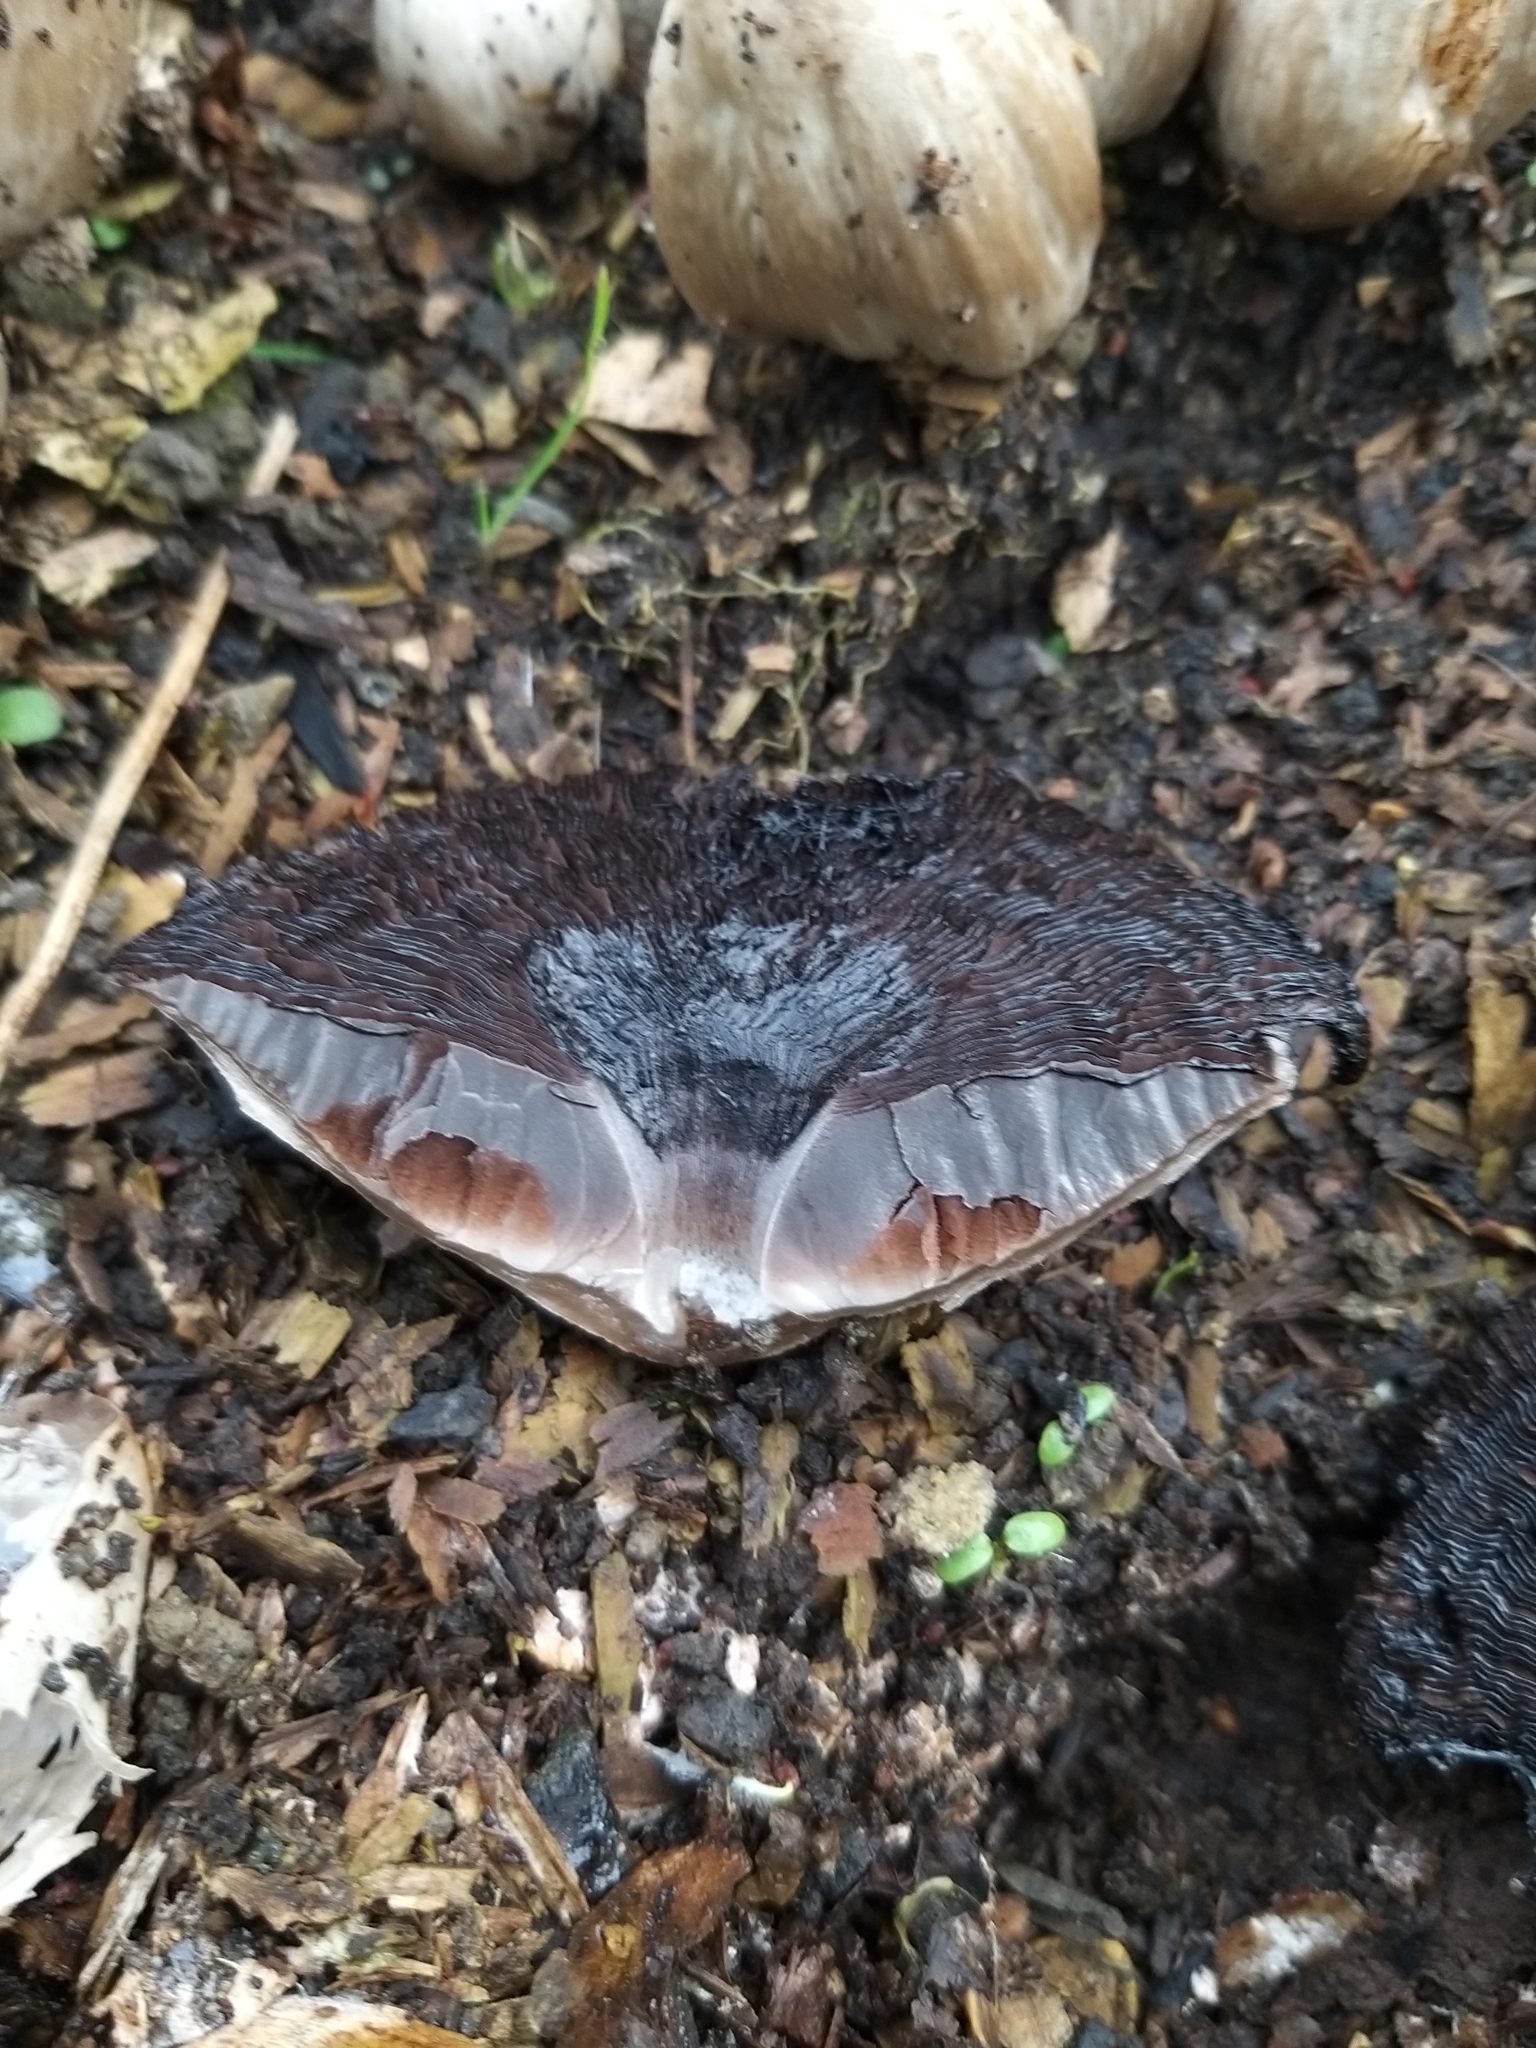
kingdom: Fungi
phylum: Basidiomycota
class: Agaricomycetes
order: Agaricales
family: Psathyrellaceae
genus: Coprinopsis
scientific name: Coprinopsis atramentaria
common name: Common ink-cap
